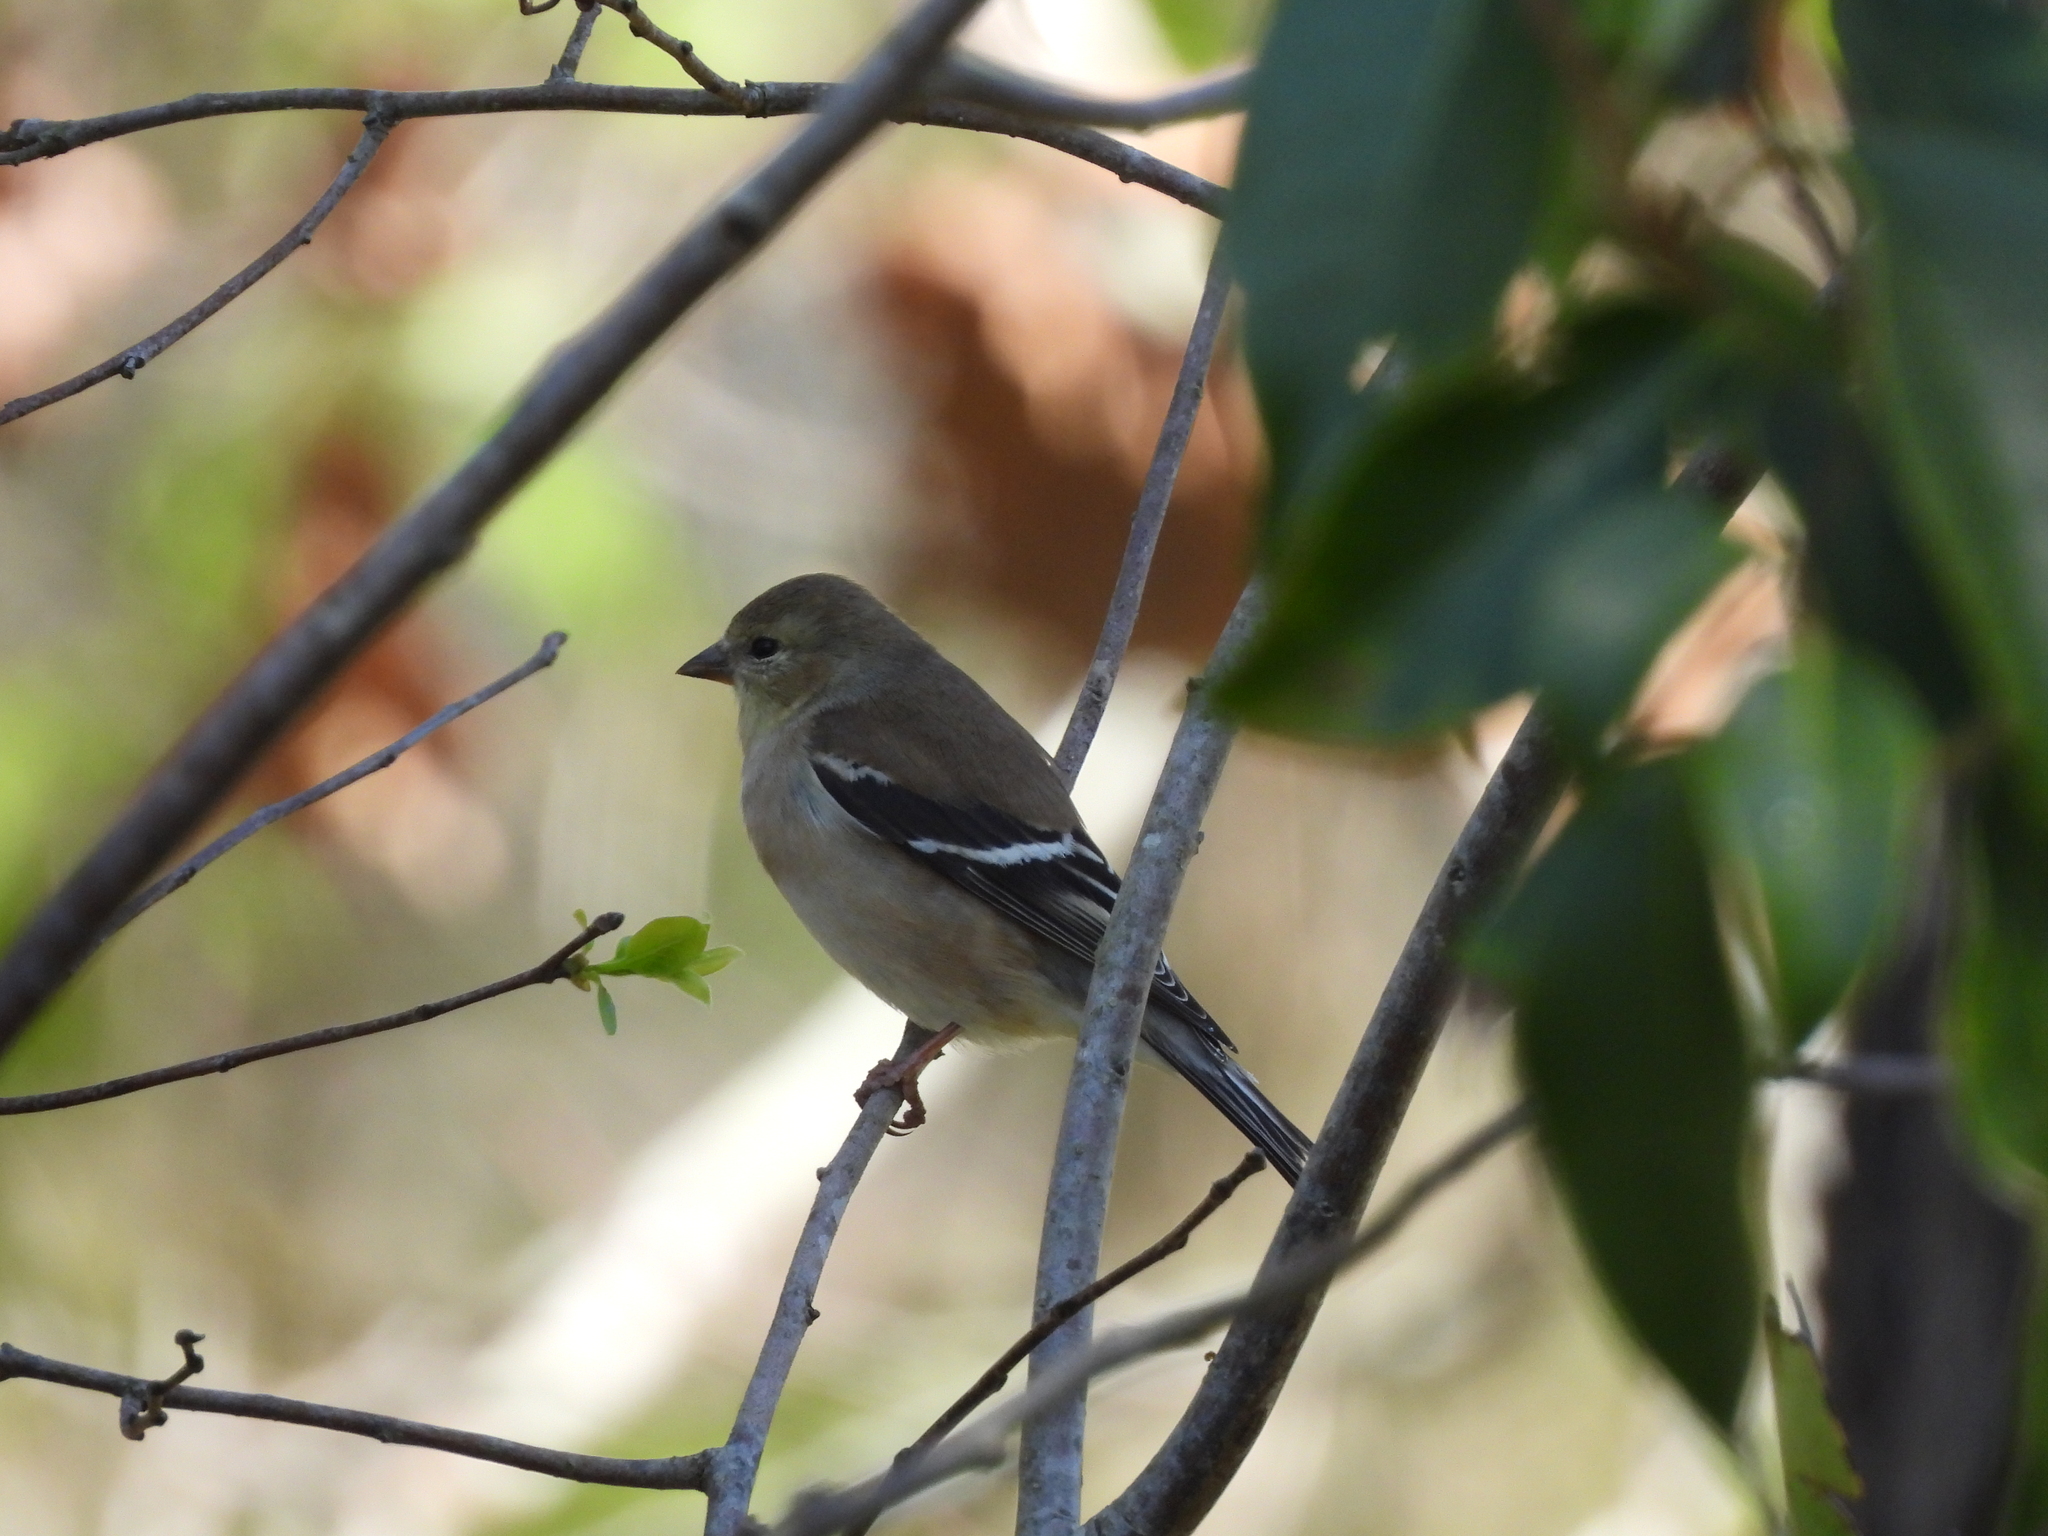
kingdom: Animalia
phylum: Chordata
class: Aves
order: Passeriformes
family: Fringillidae
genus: Spinus
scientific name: Spinus tristis
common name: American goldfinch
